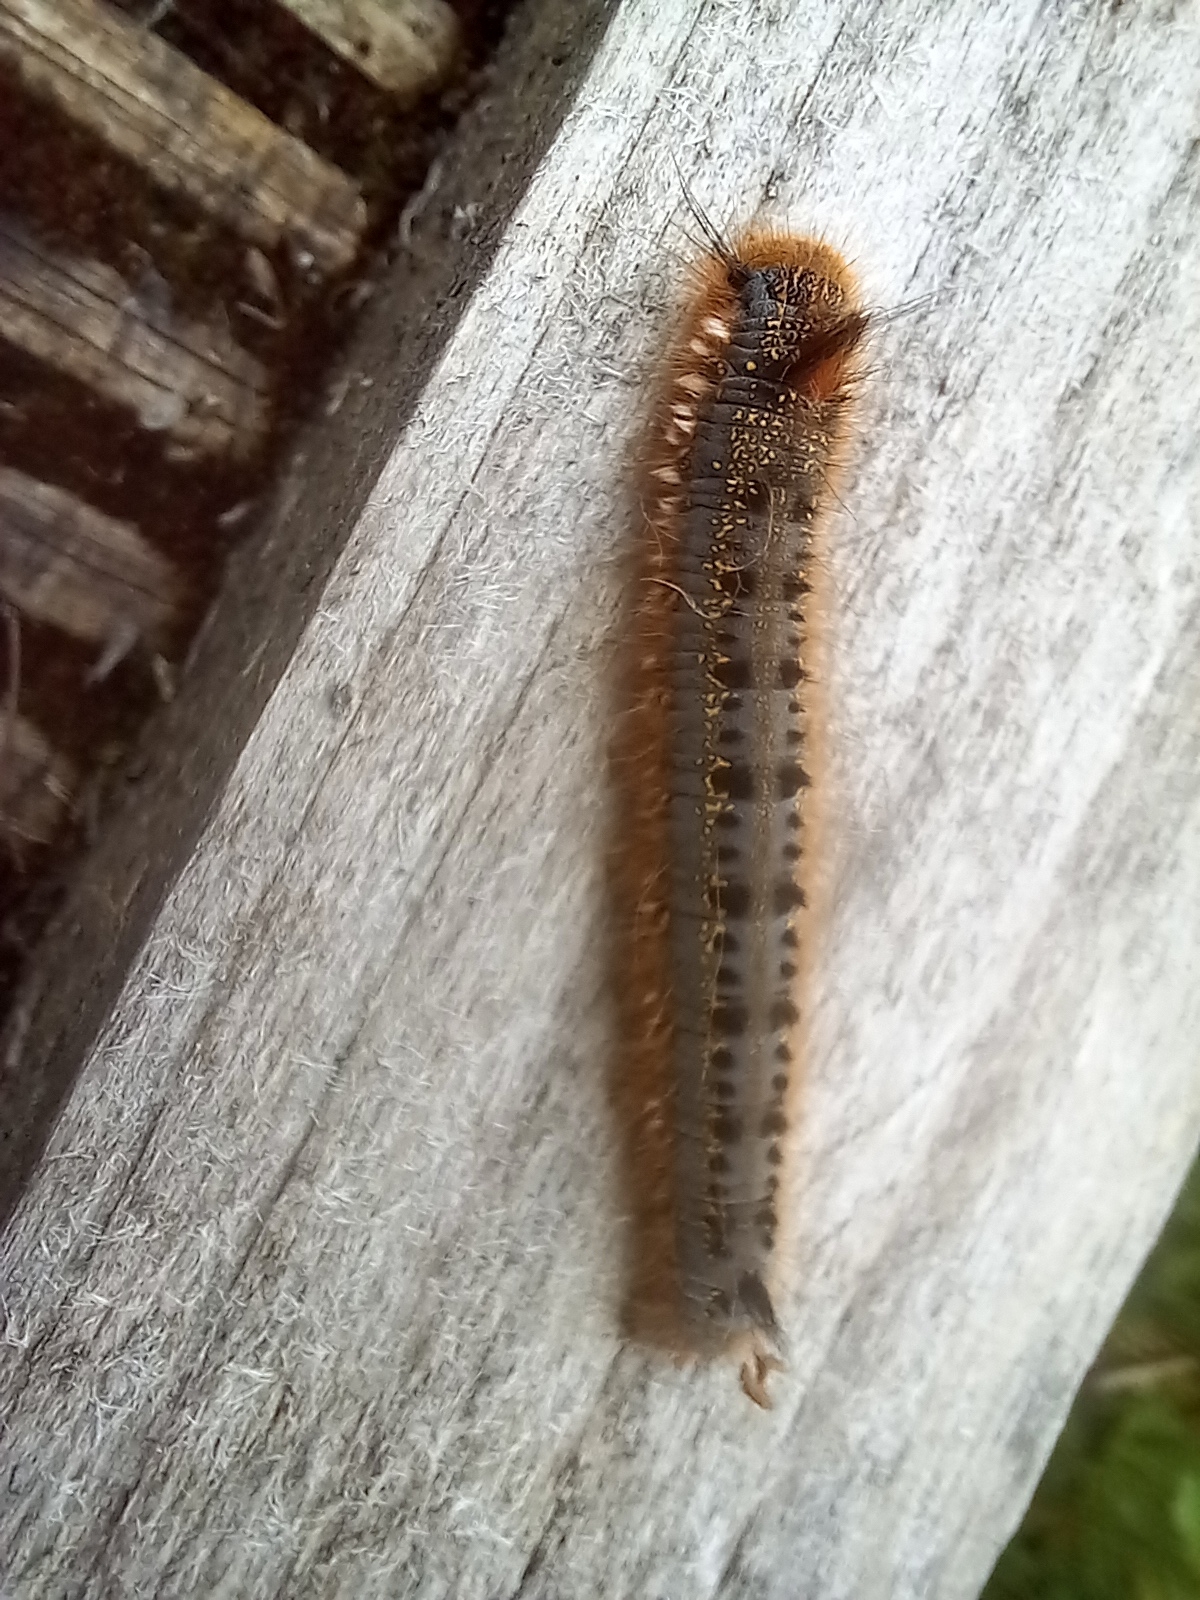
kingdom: Animalia
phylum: Arthropoda
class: Insecta
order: Lepidoptera
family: Lasiocampidae
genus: Euthrix
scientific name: Euthrix potatoria
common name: Drinker
